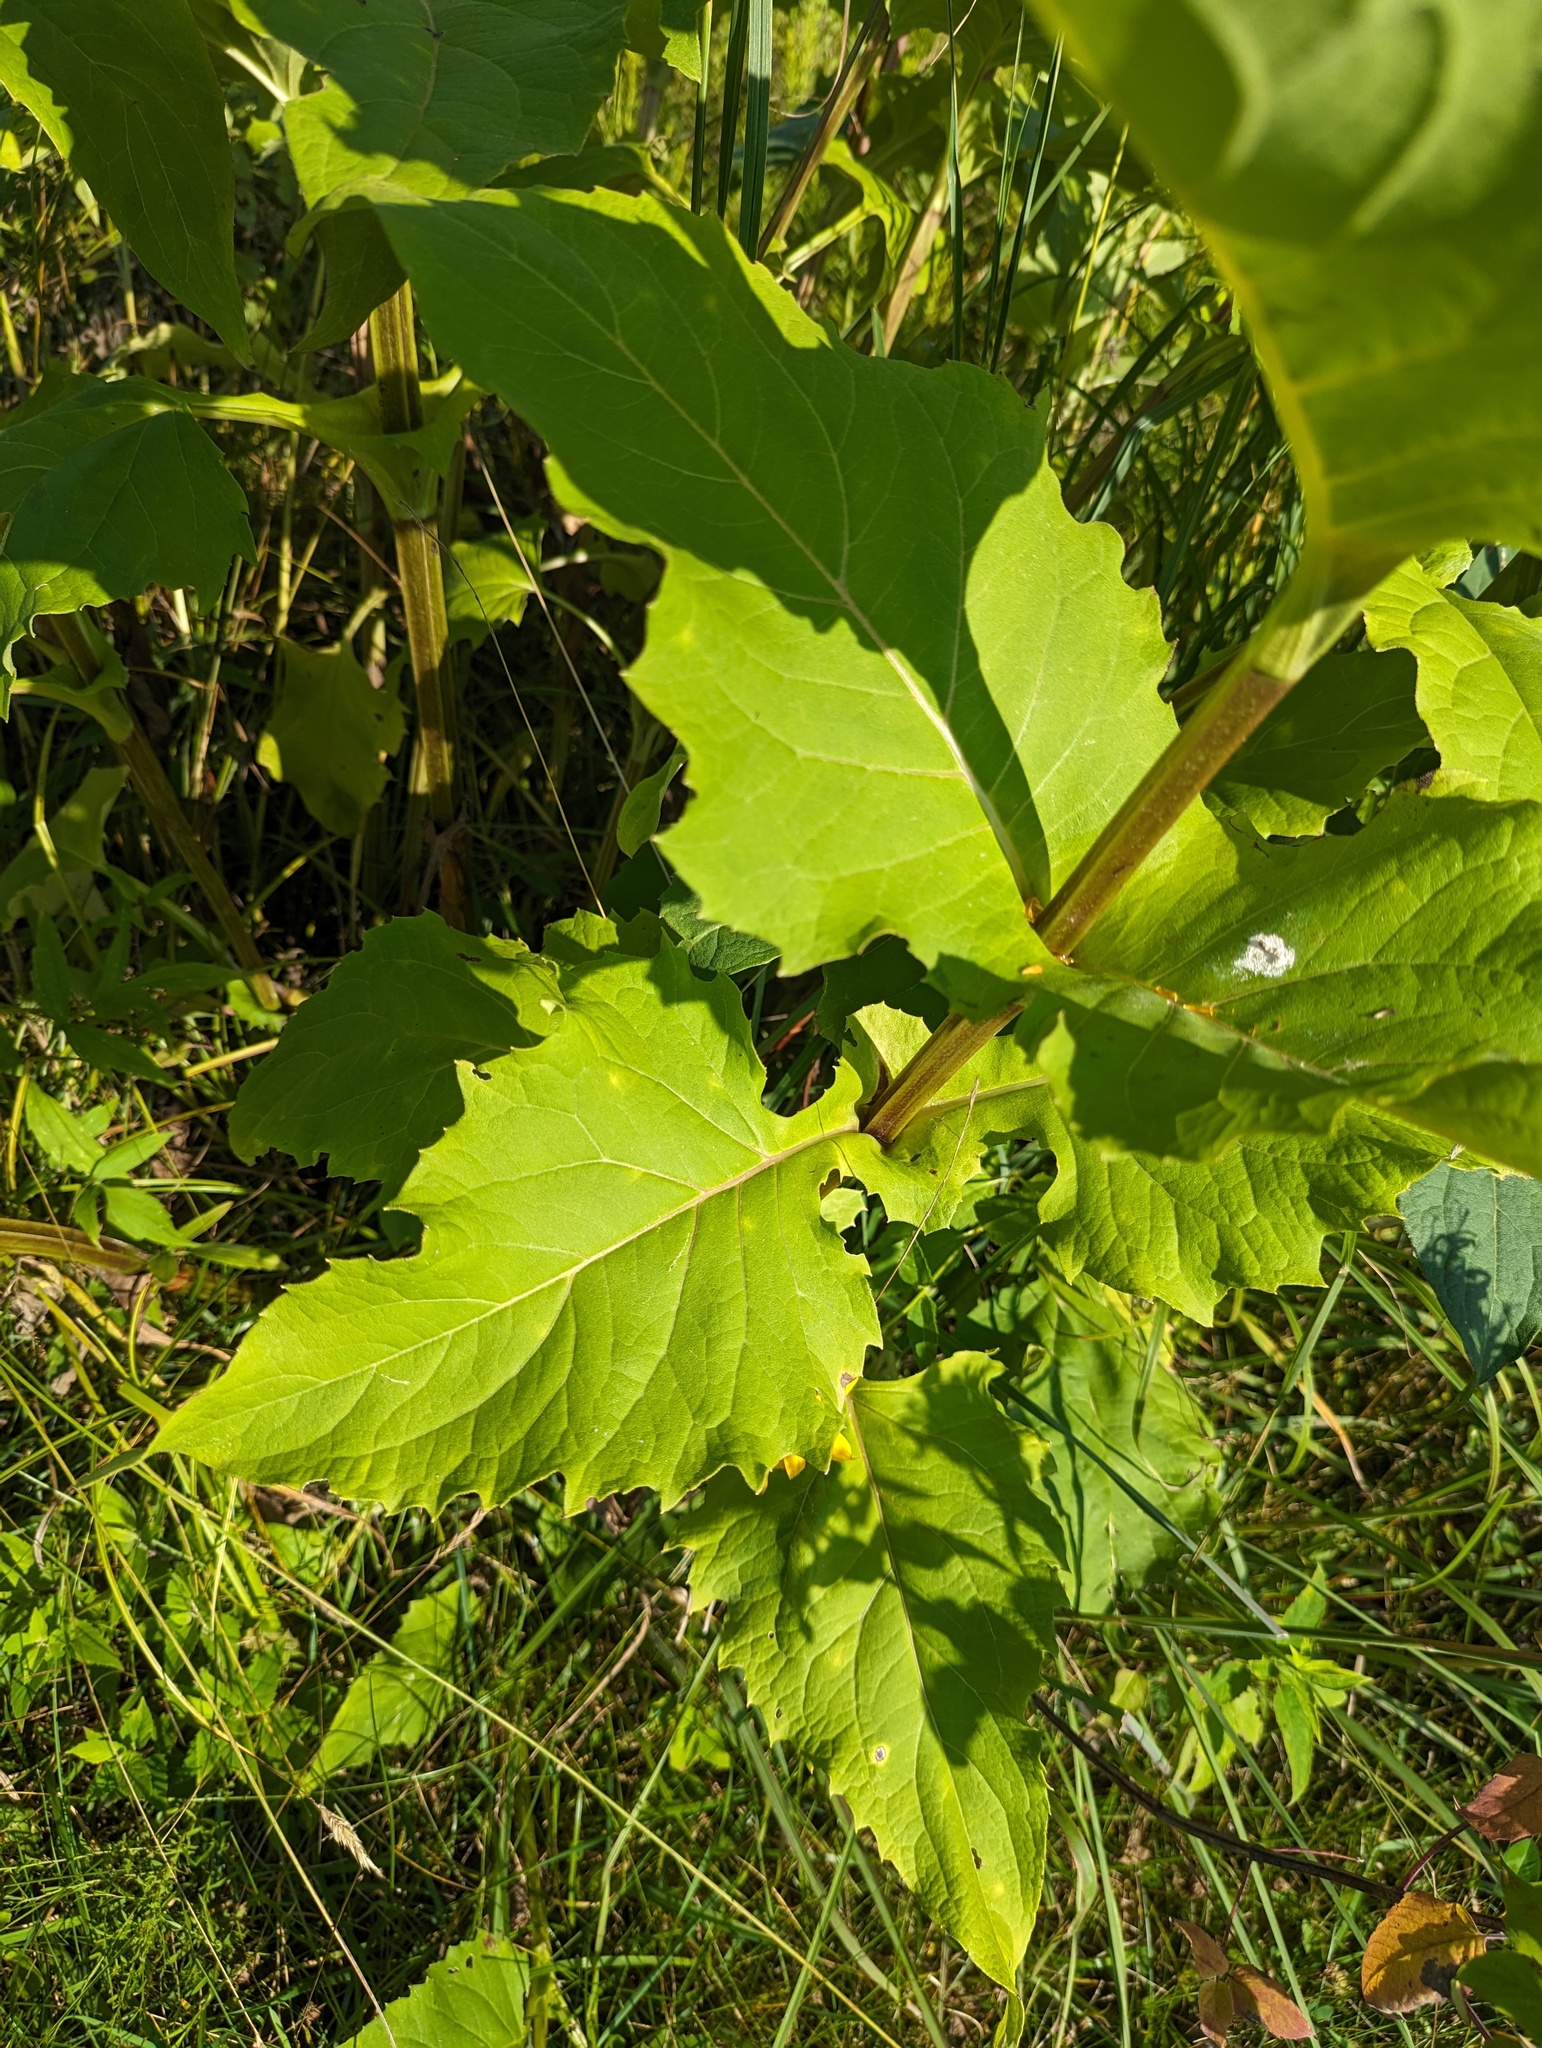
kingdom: Plantae
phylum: Tracheophyta
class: Magnoliopsida
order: Asterales
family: Asteraceae
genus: Silphium
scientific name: Silphium perfoliatum
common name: Cup-plant
